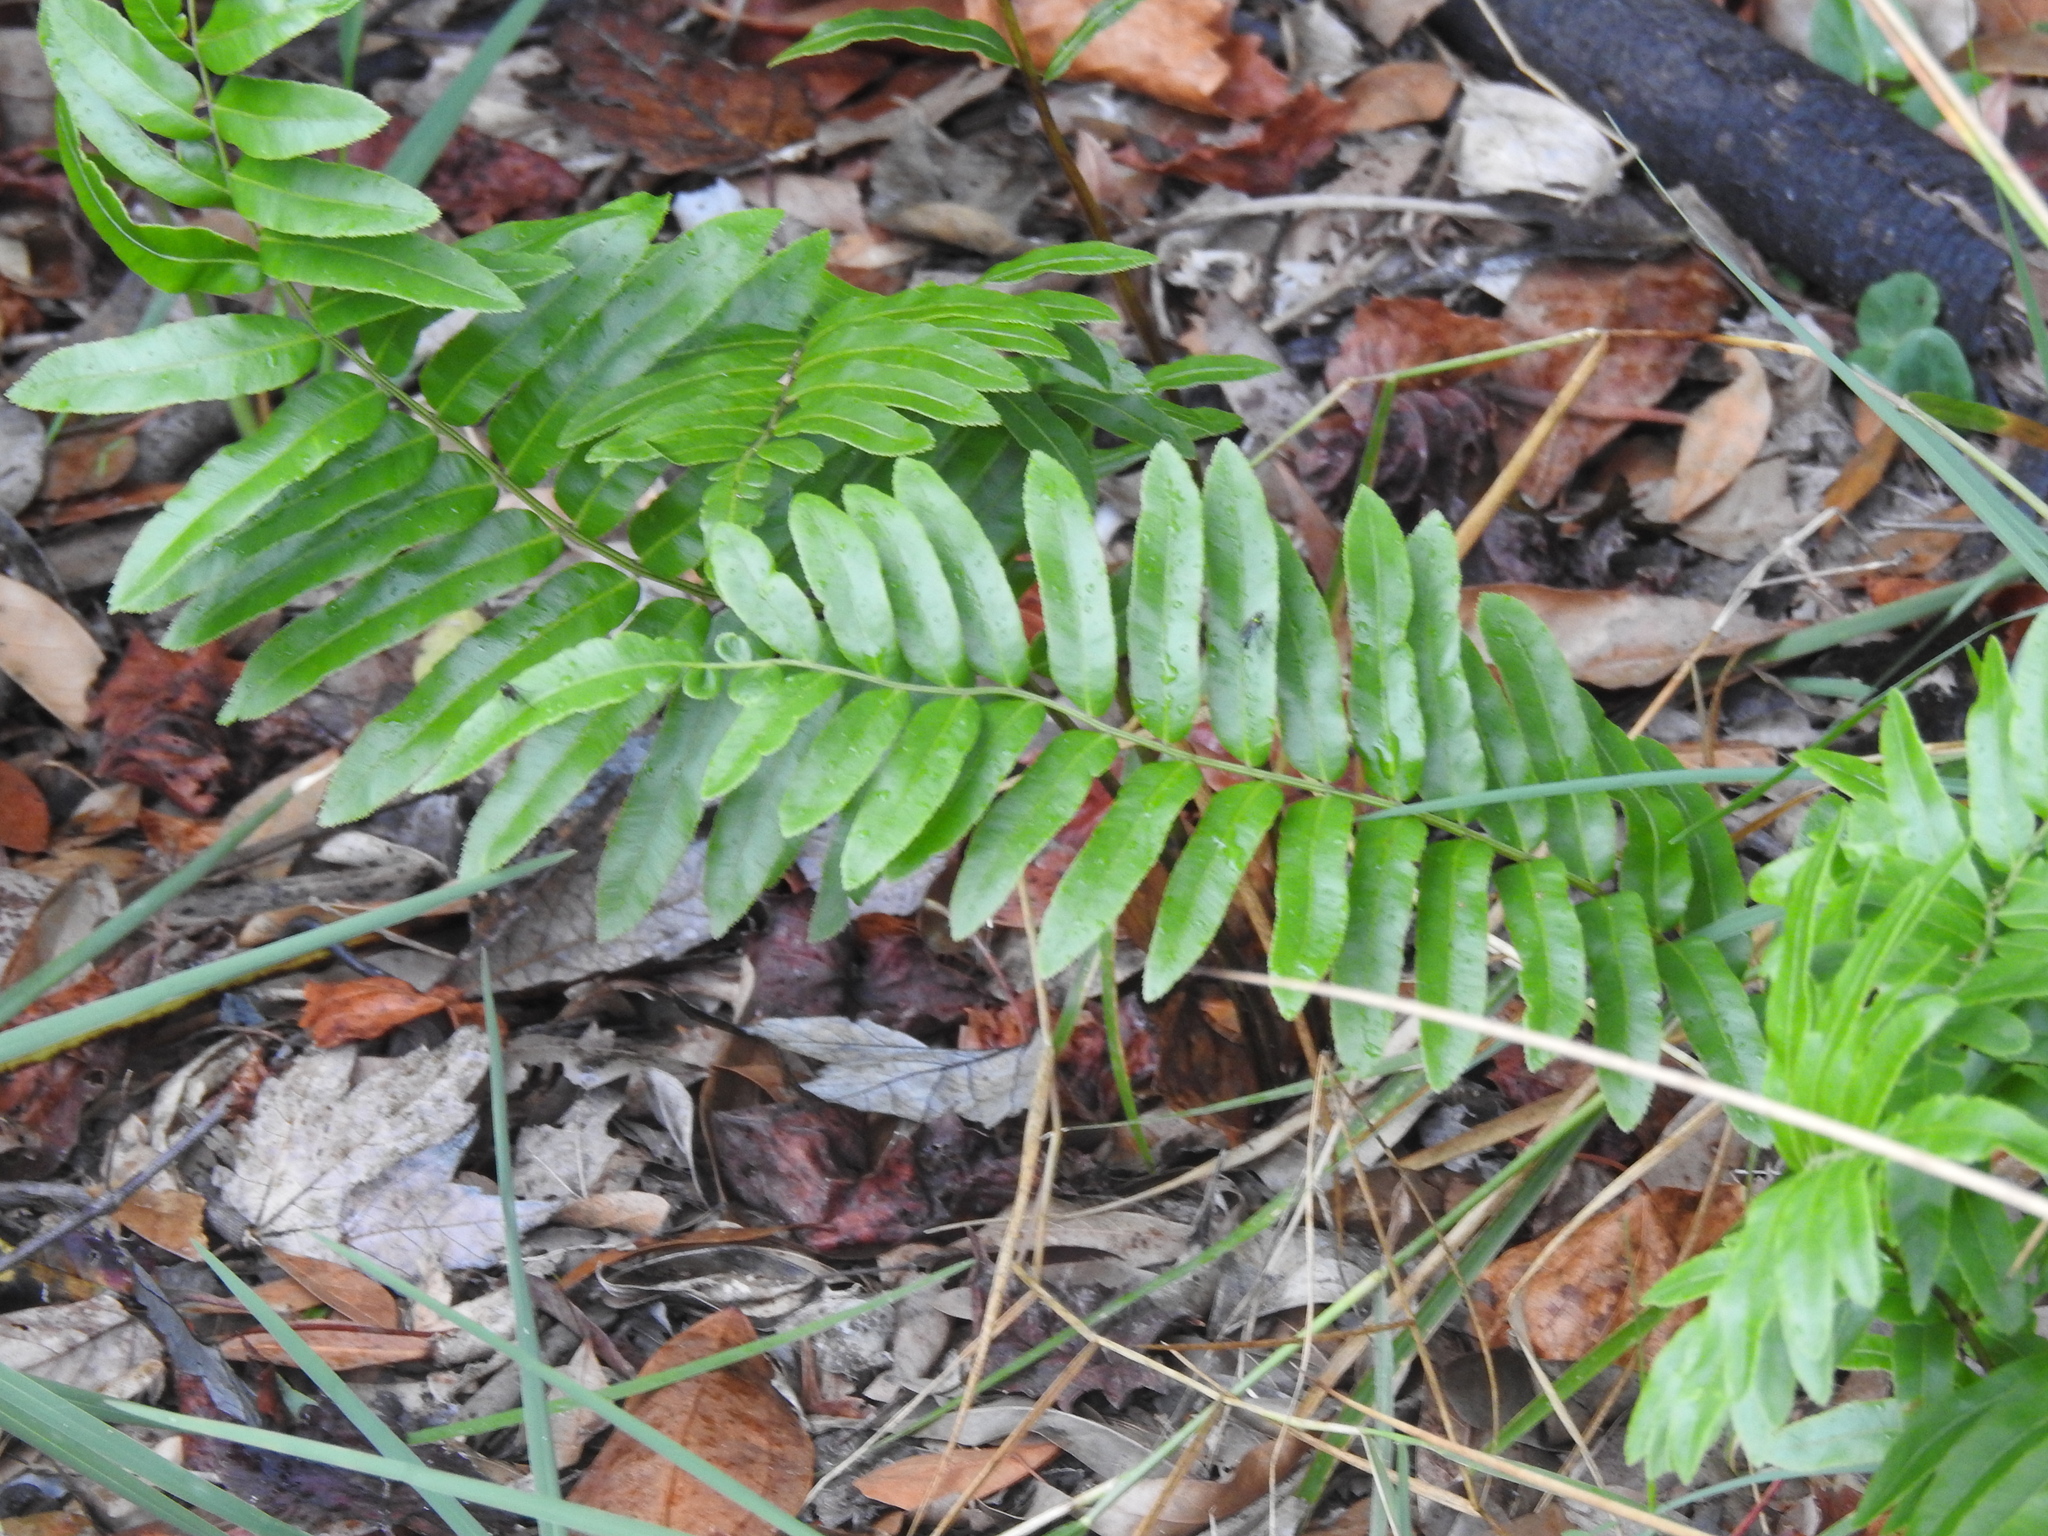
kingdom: Plantae
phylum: Tracheophyta
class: Polypodiopsida
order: Polypodiales
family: Blechnaceae
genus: Telmatoblechnum
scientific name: Telmatoblechnum serrulatum
